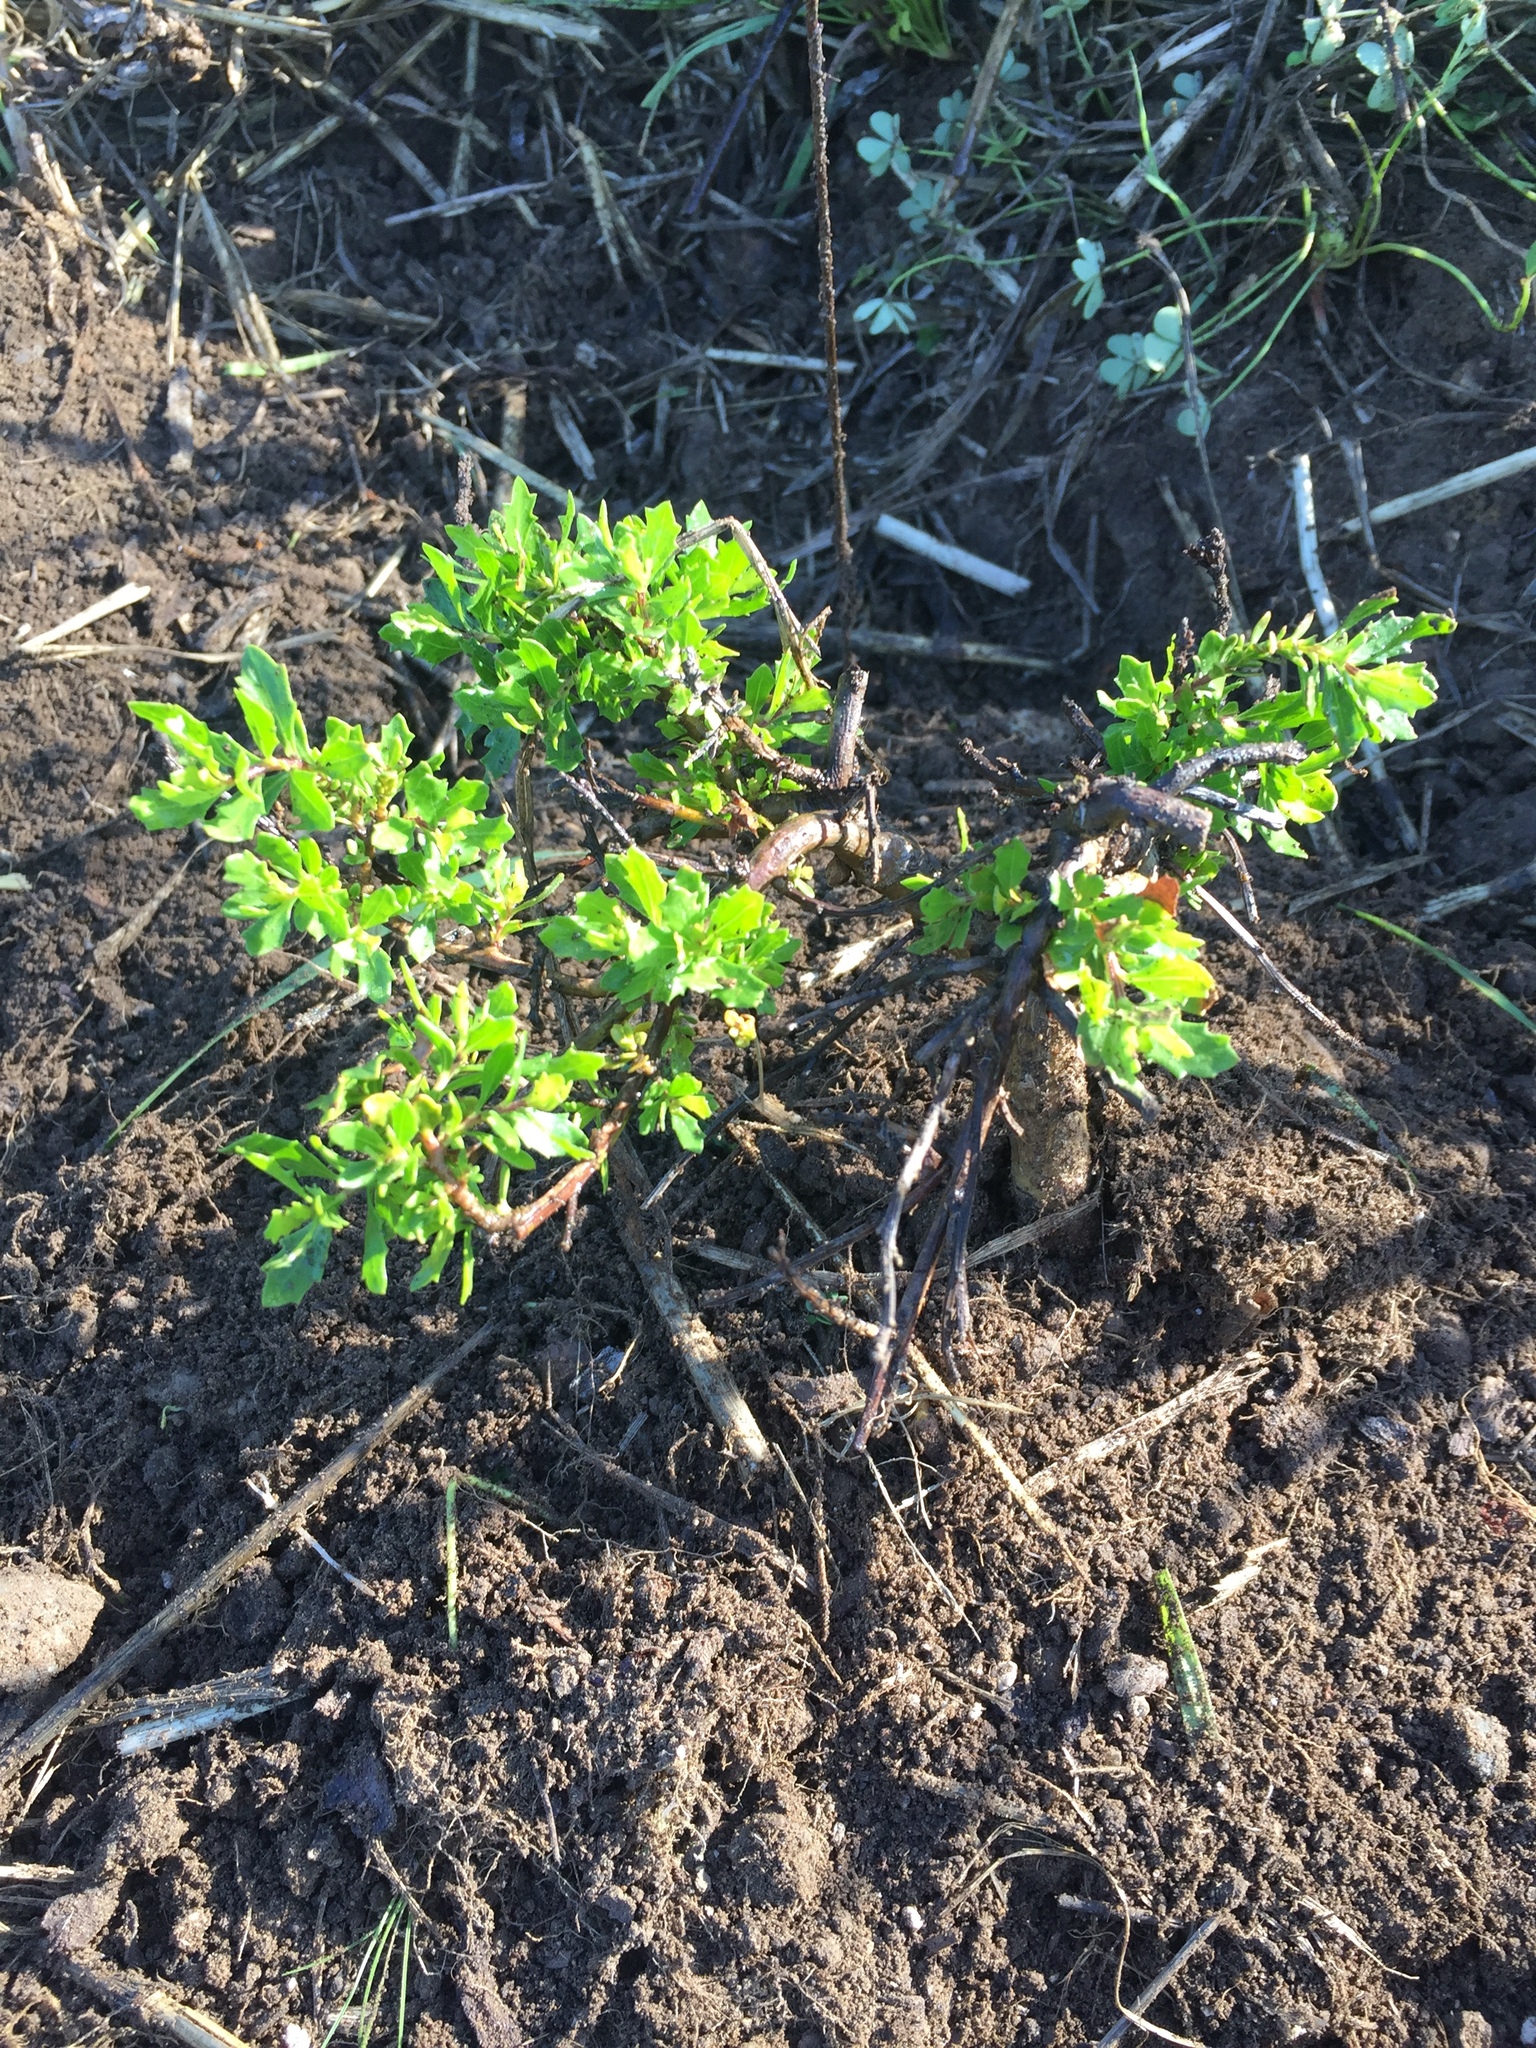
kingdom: Plantae
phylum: Tracheophyta
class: Magnoliopsida
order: Asterales
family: Asteraceae
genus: Baccharis
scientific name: Baccharis pilularis
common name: Coyotebrush
